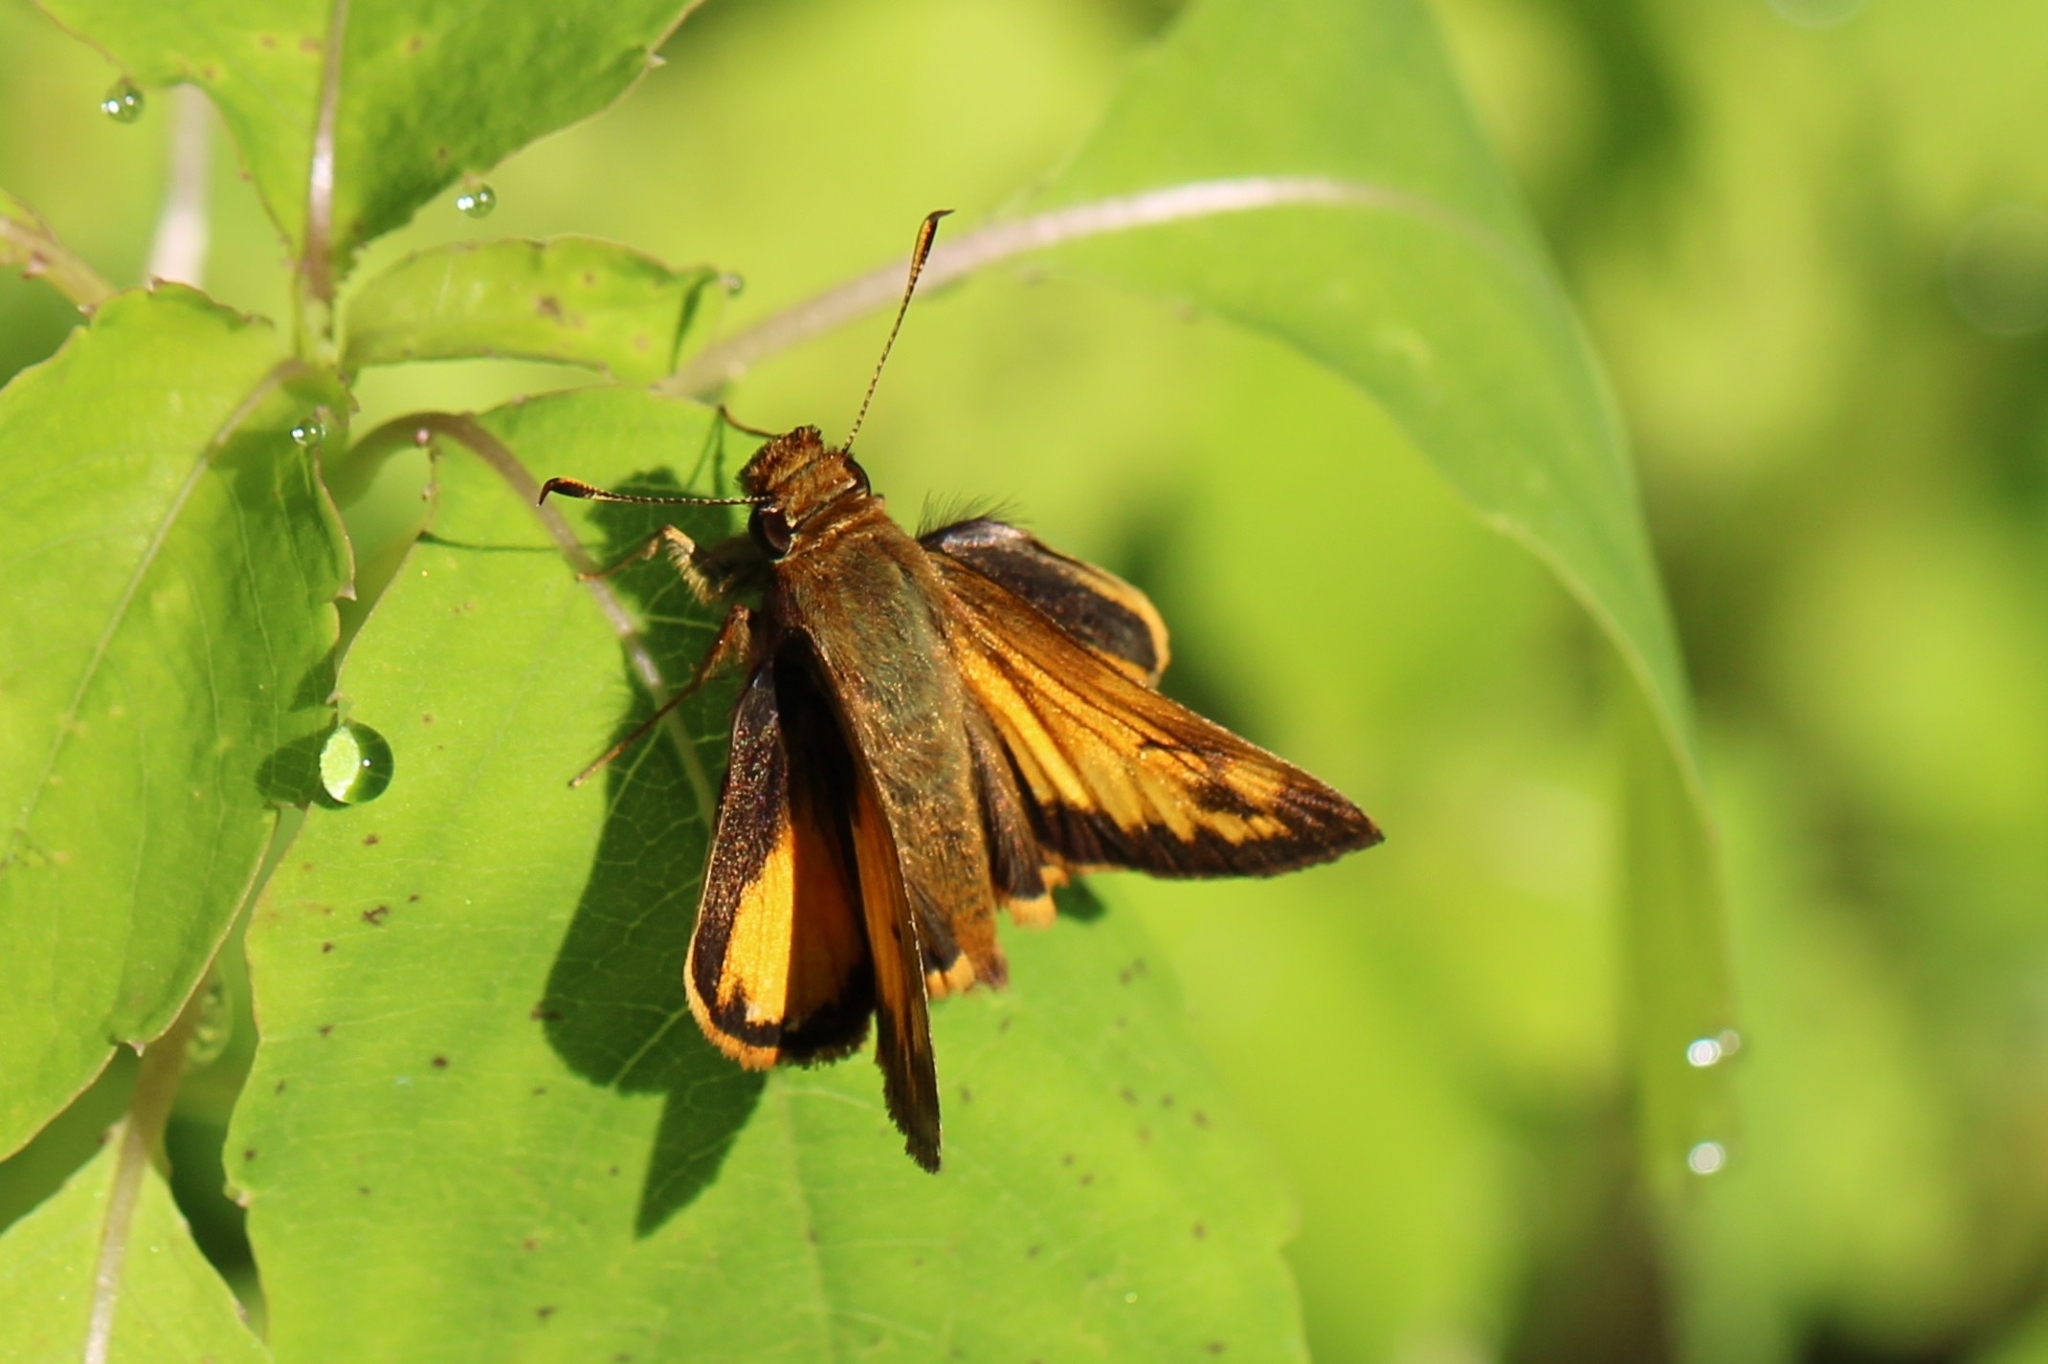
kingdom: Animalia
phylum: Arthropoda
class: Insecta
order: Lepidoptera
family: Hesperiidae
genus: Lon
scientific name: Lon zabulon
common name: Zabulon skipper
